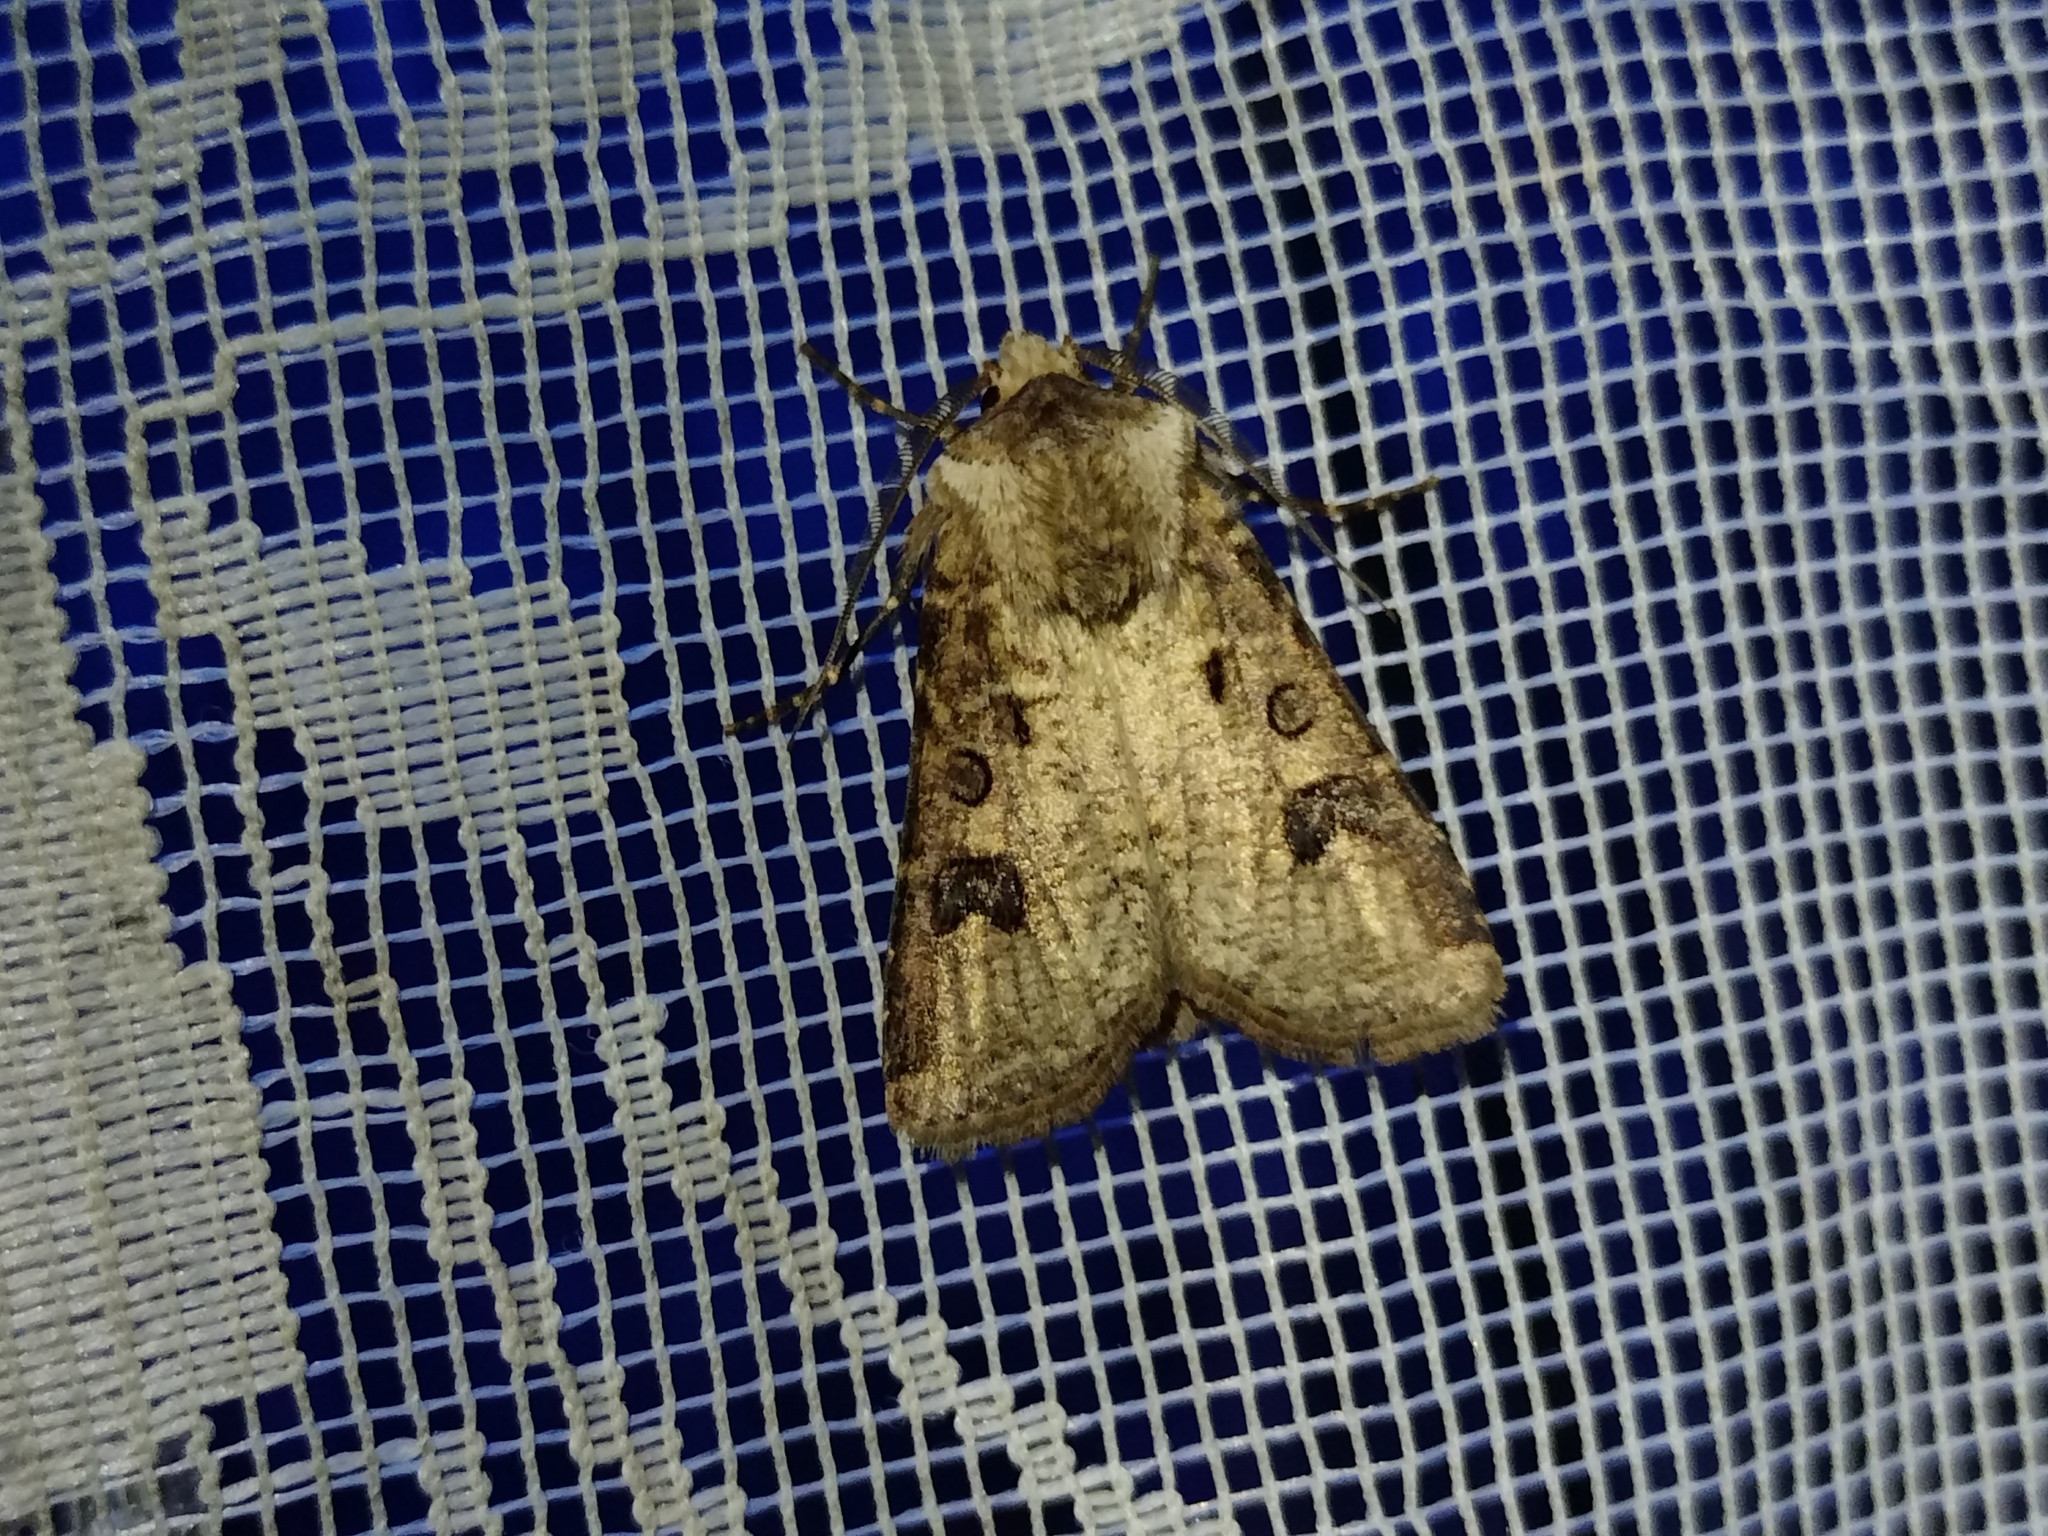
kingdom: Animalia
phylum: Arthropoda
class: Insecta
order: Lepidoptera
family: Noctuidae
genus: Agrotis
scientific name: Agrotis clavis
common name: Heart and club
